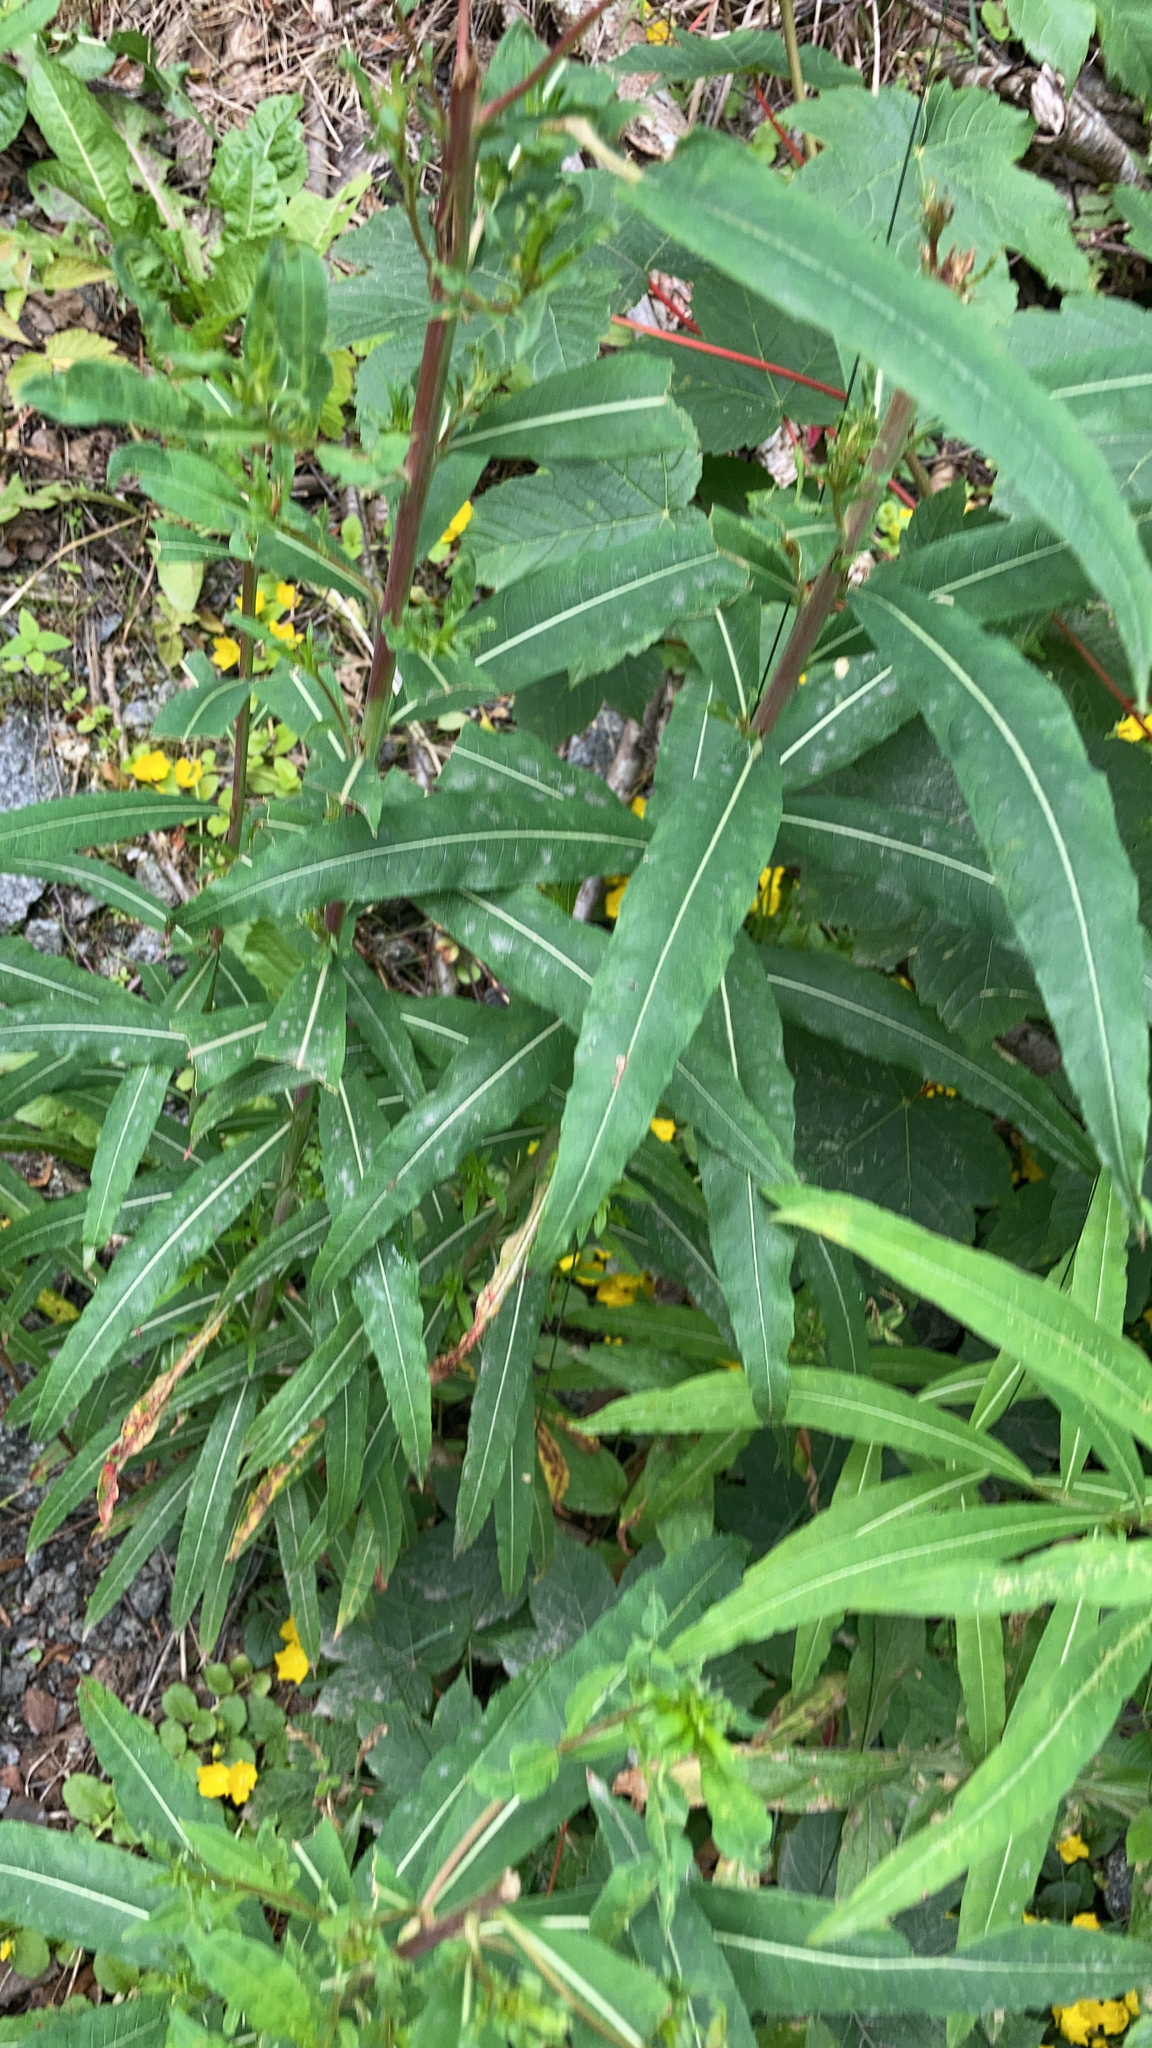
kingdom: Plantae
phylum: Tracheophyta
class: Magnoliopsida
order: Myrtales
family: Onagraceae
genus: Chamaenerion
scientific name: Chamaenerion angustifolium
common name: Fireweed
